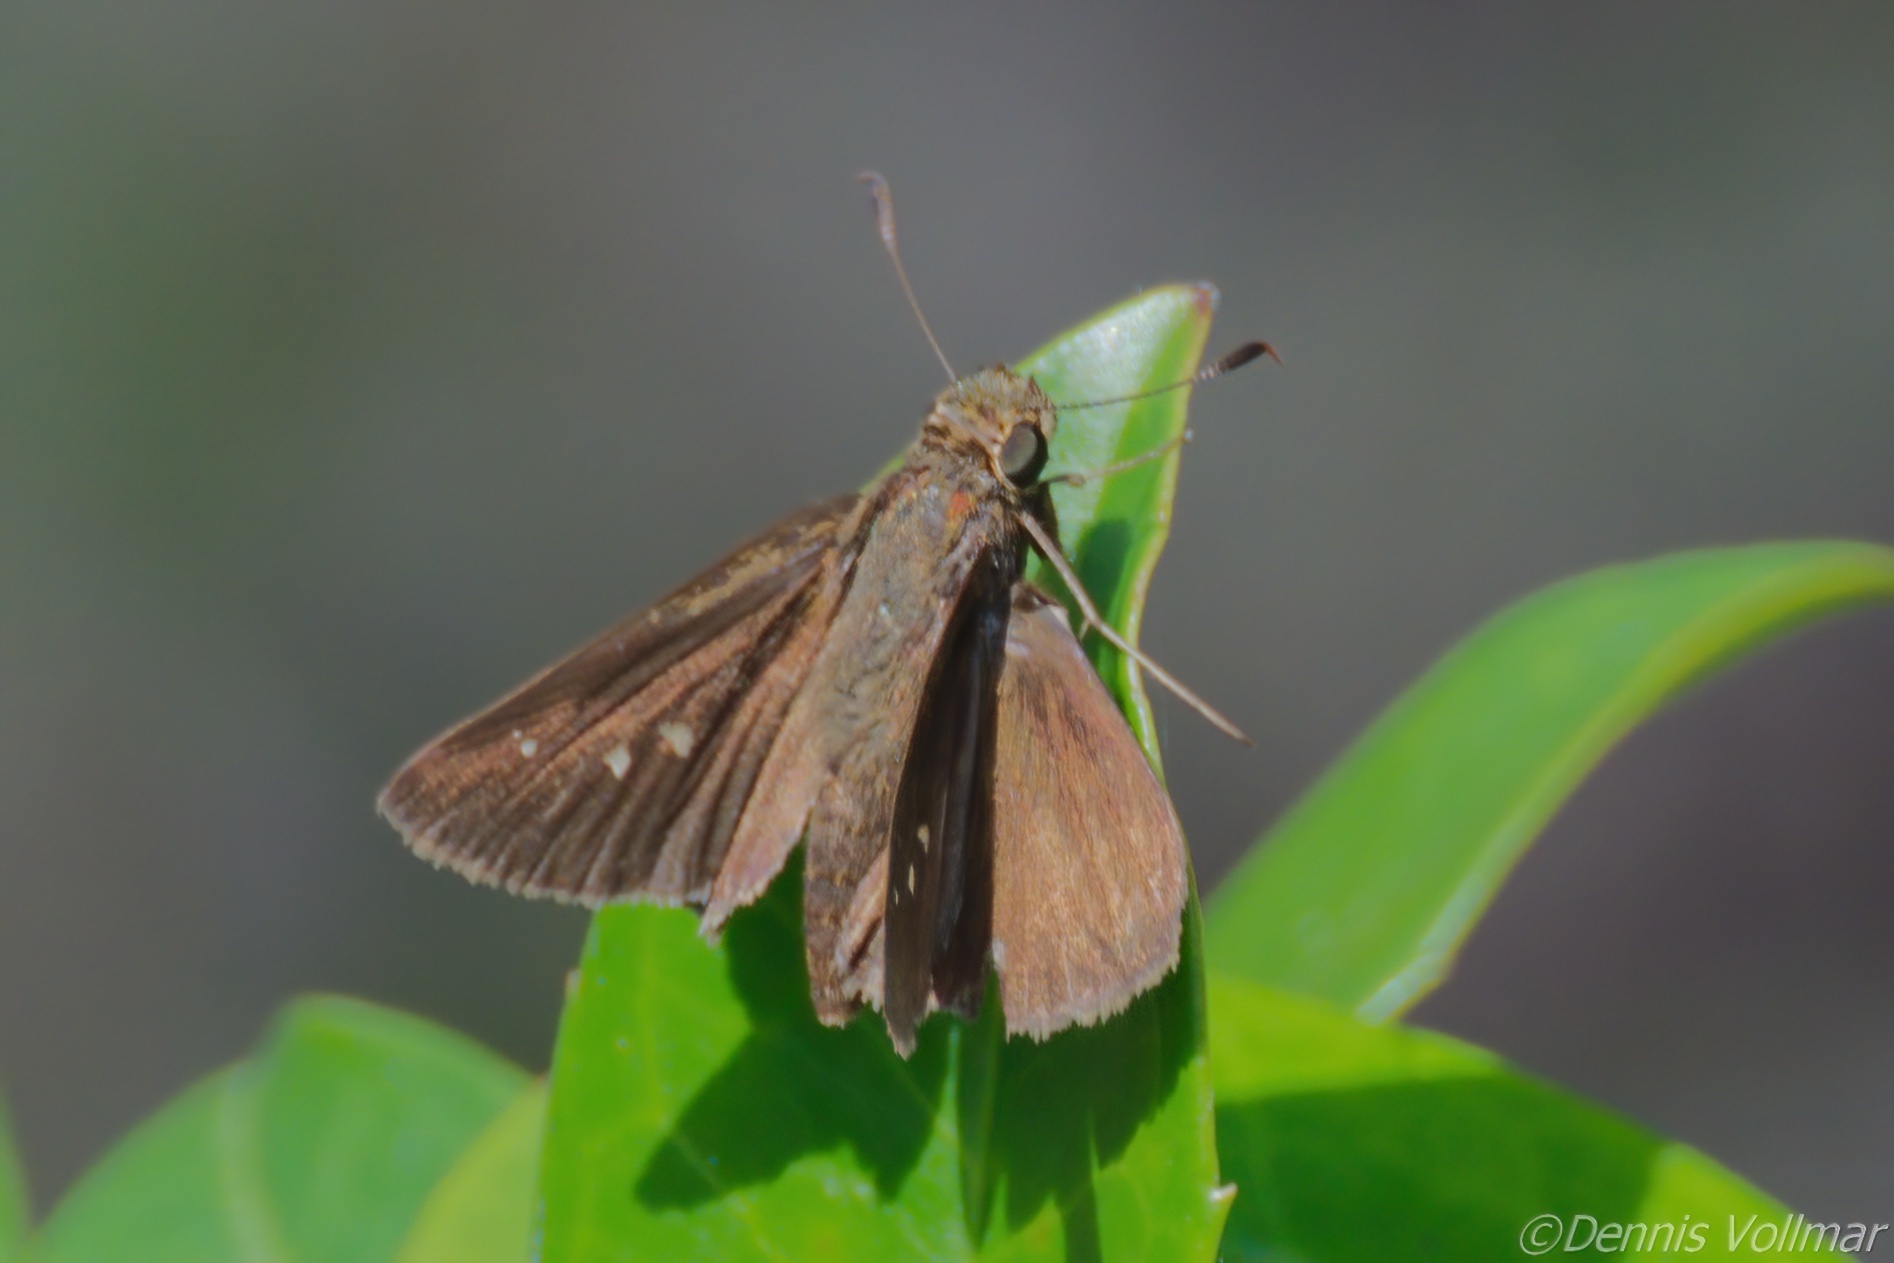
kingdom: Animalia
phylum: Arthropoda
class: Insecta
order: Lepidoptera
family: Hesperiidae
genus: Oligoria
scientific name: Oligoria maculata
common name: Twin-spot skipper
